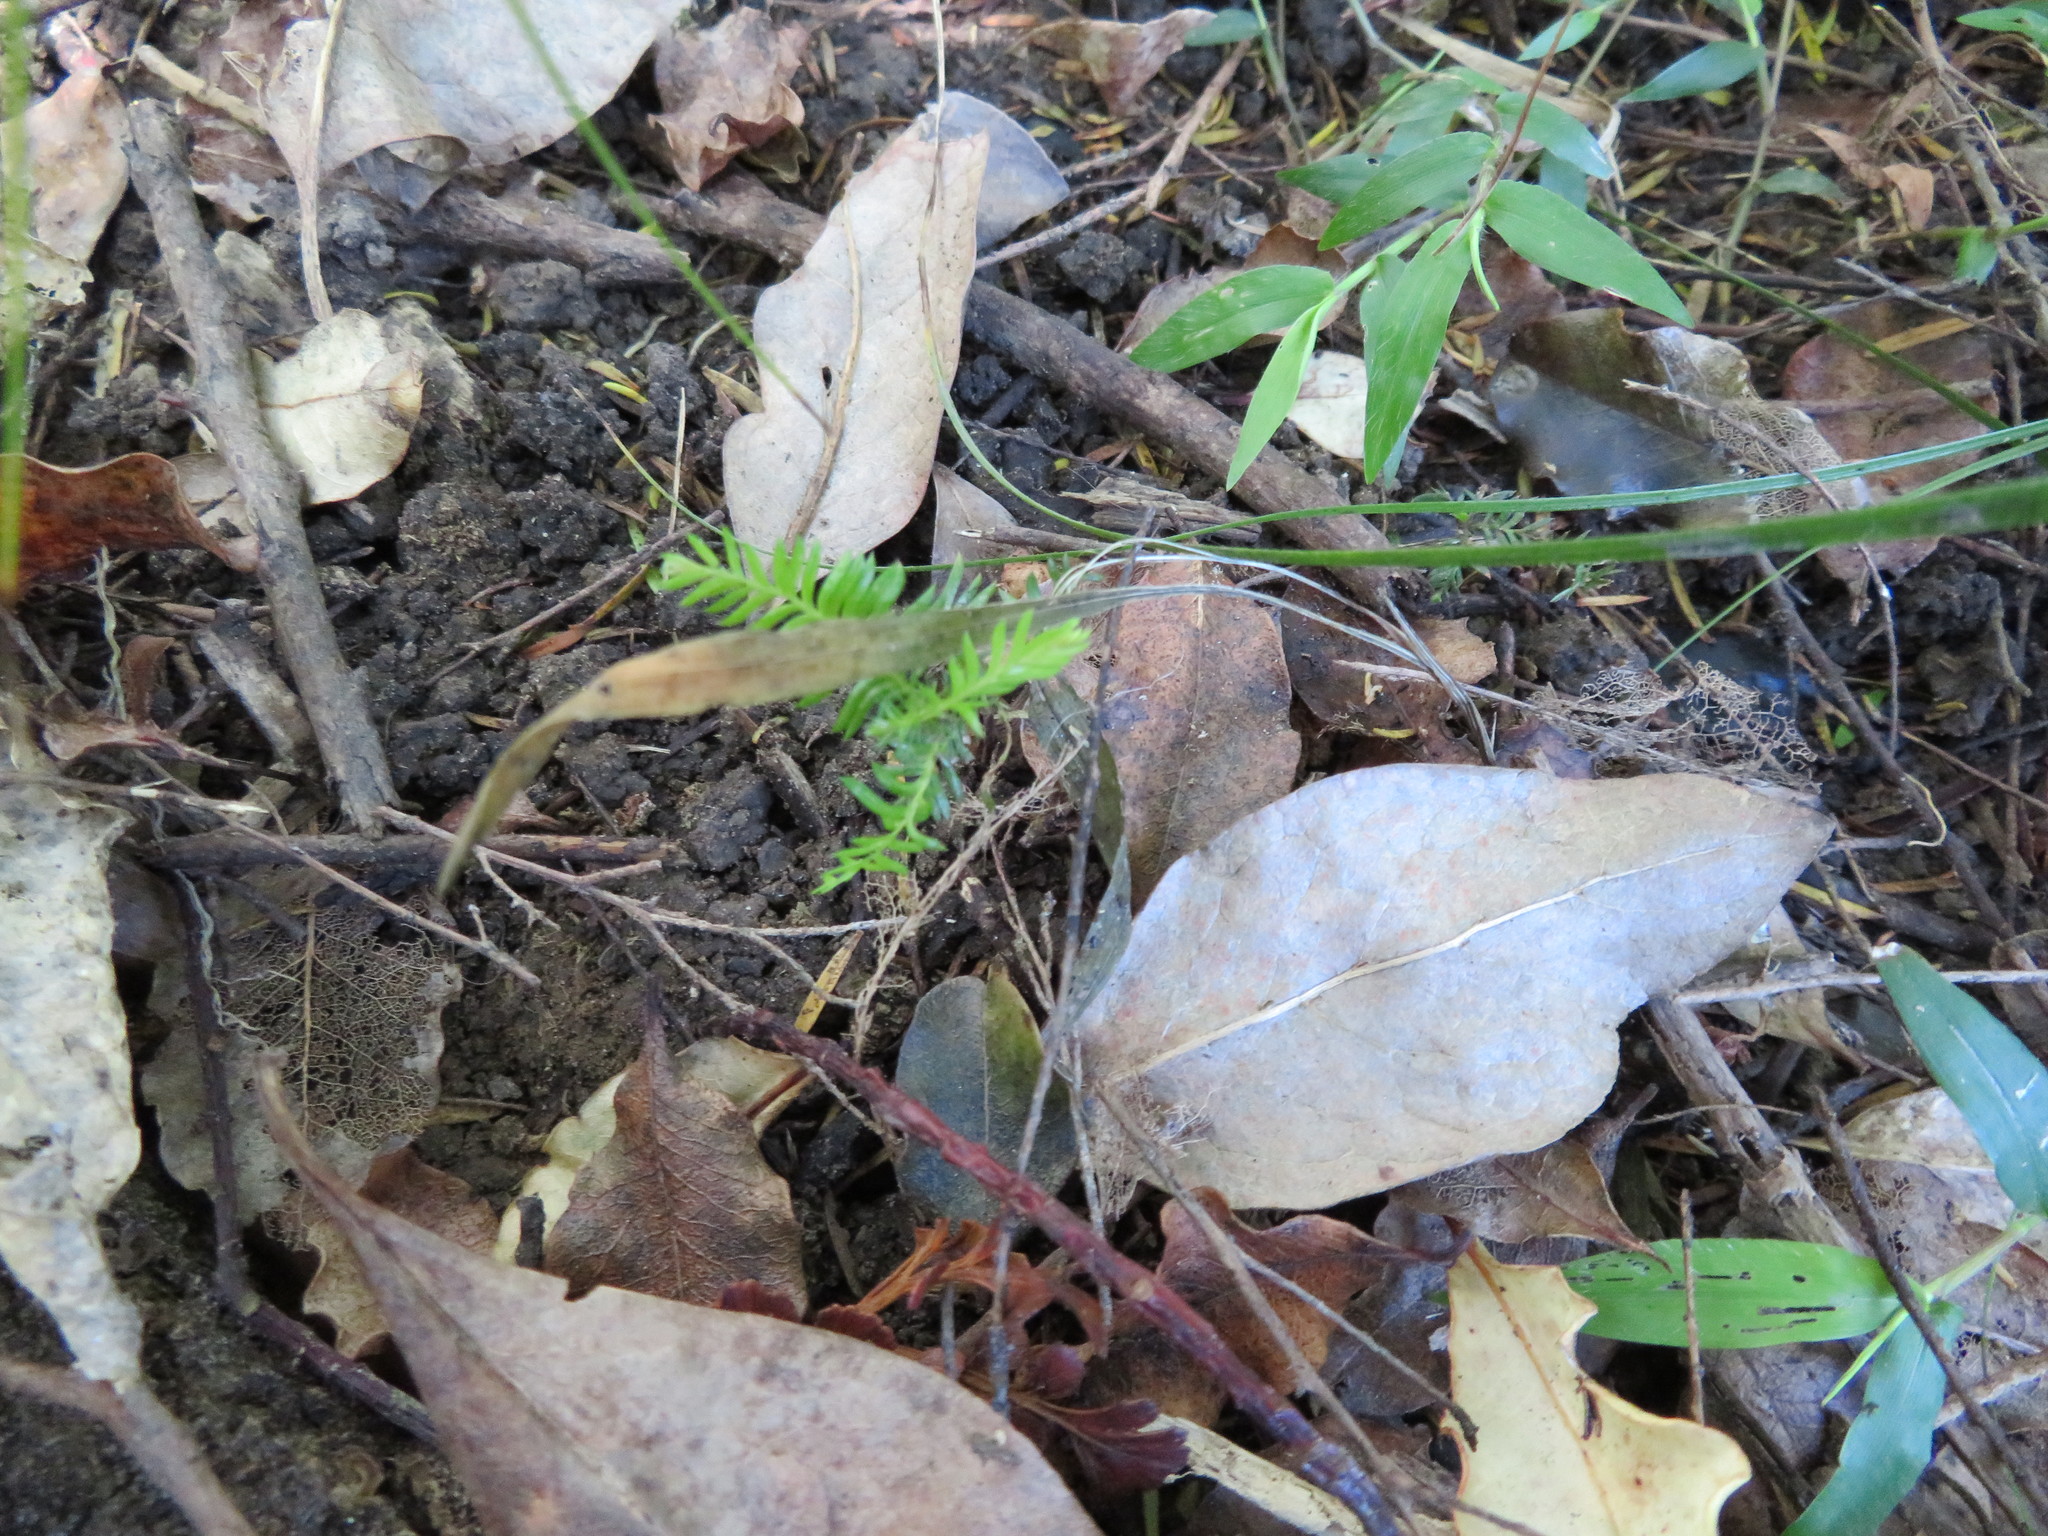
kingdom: Plantae
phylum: Tracheophyta
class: Pinopsida
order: Pinales
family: Podocarpaceae
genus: Dacrycarpus
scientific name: Dacrycarpus dacrydioides
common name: White pine
